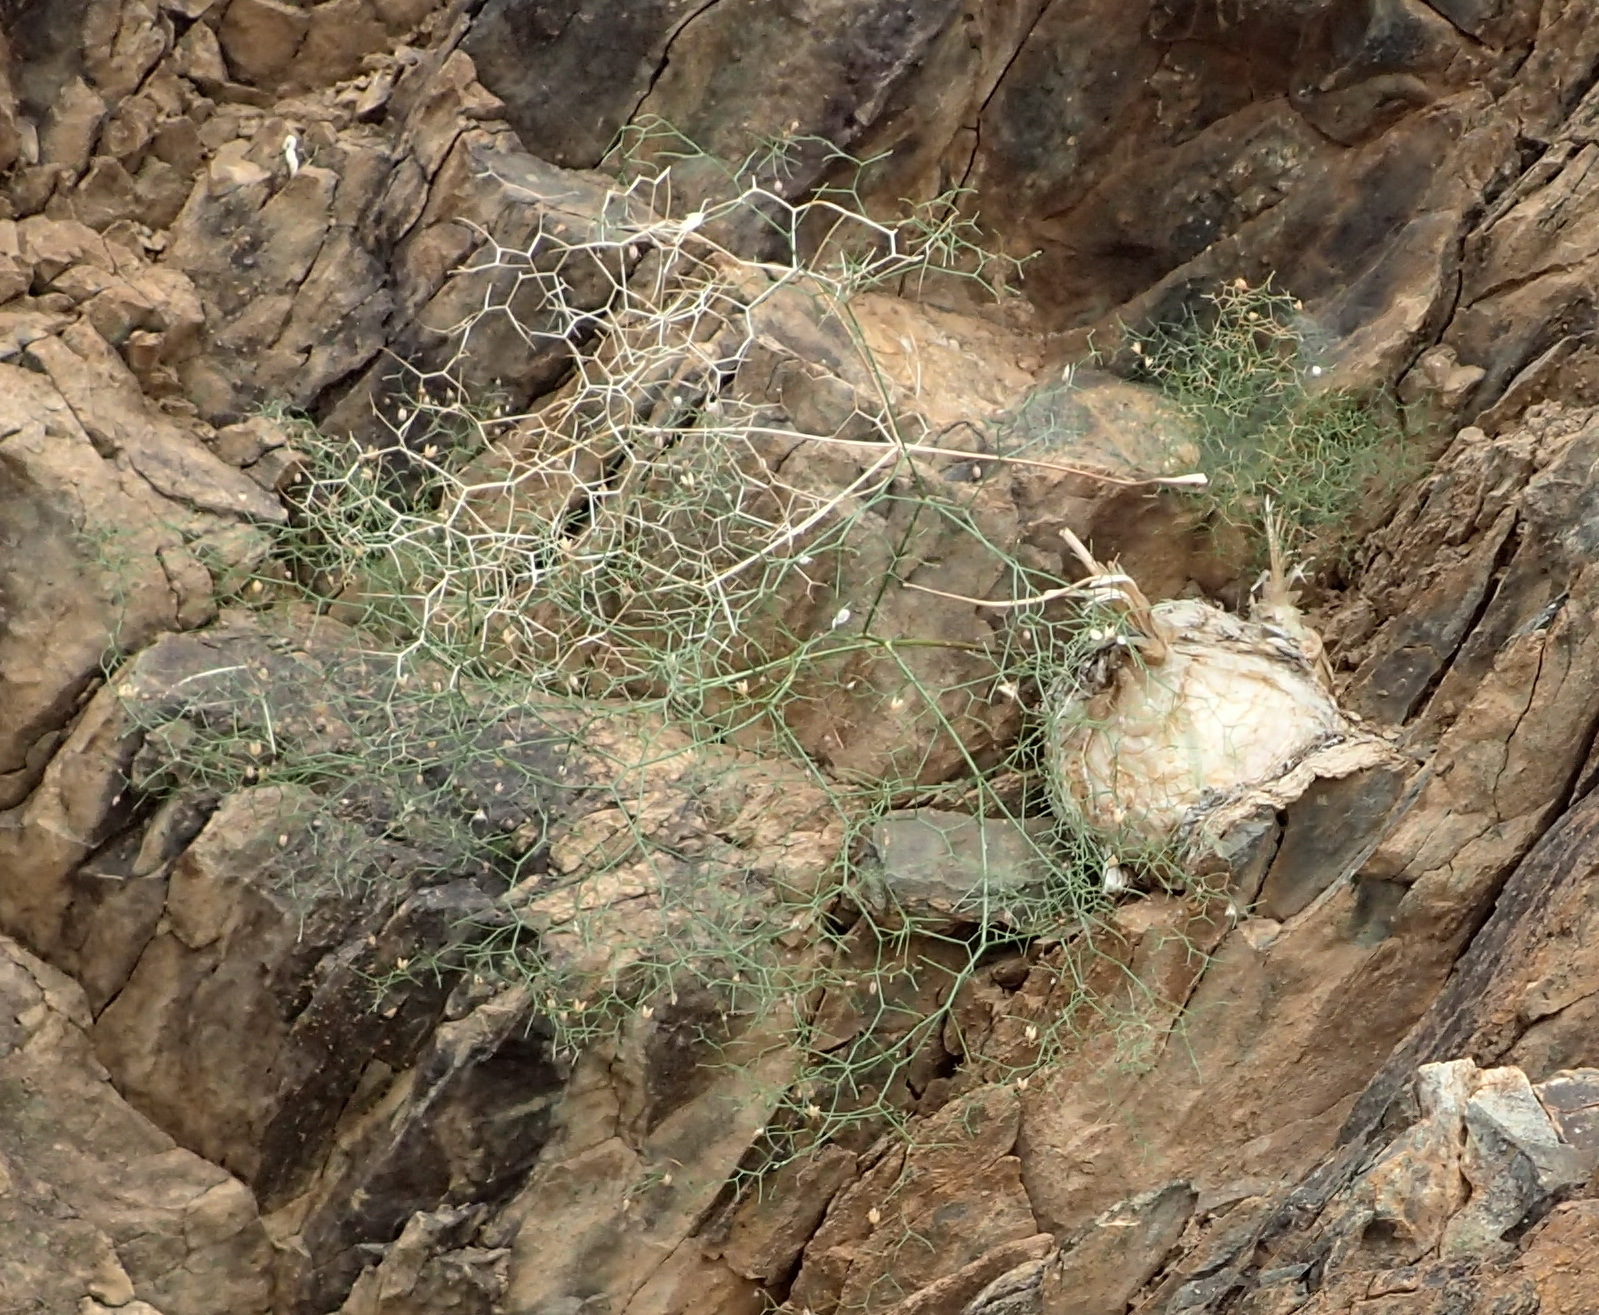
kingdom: Plantae
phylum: Tracheophyta
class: Liliopsida
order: Asparagales
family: Asparagaceae
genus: Drimia
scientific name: Drimia intricata
